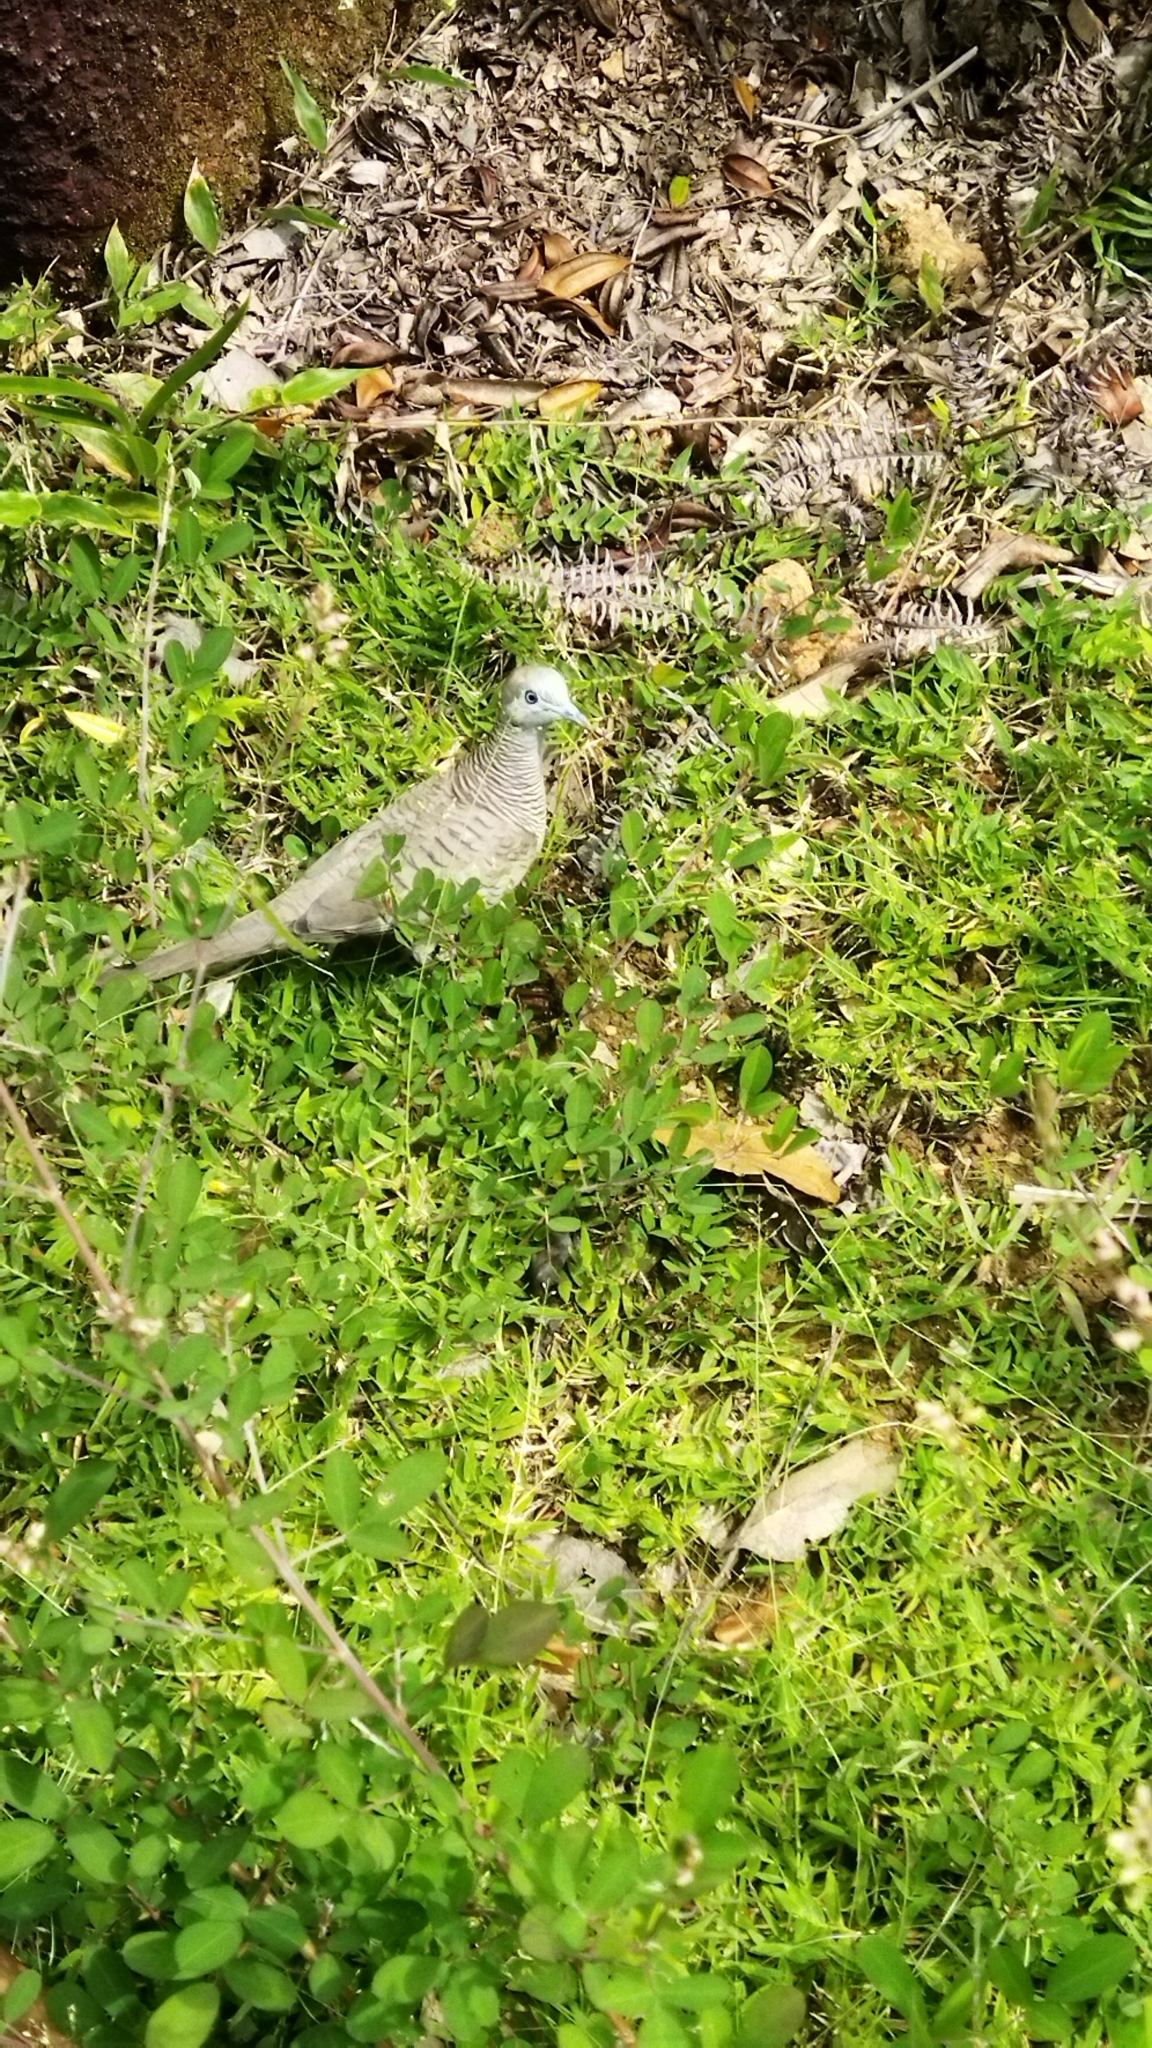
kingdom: Animalia
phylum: Chordata
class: Aves
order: Columbiformes
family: Columbidae
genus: Geopelia
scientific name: Geopelia striata
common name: Zebra dove
